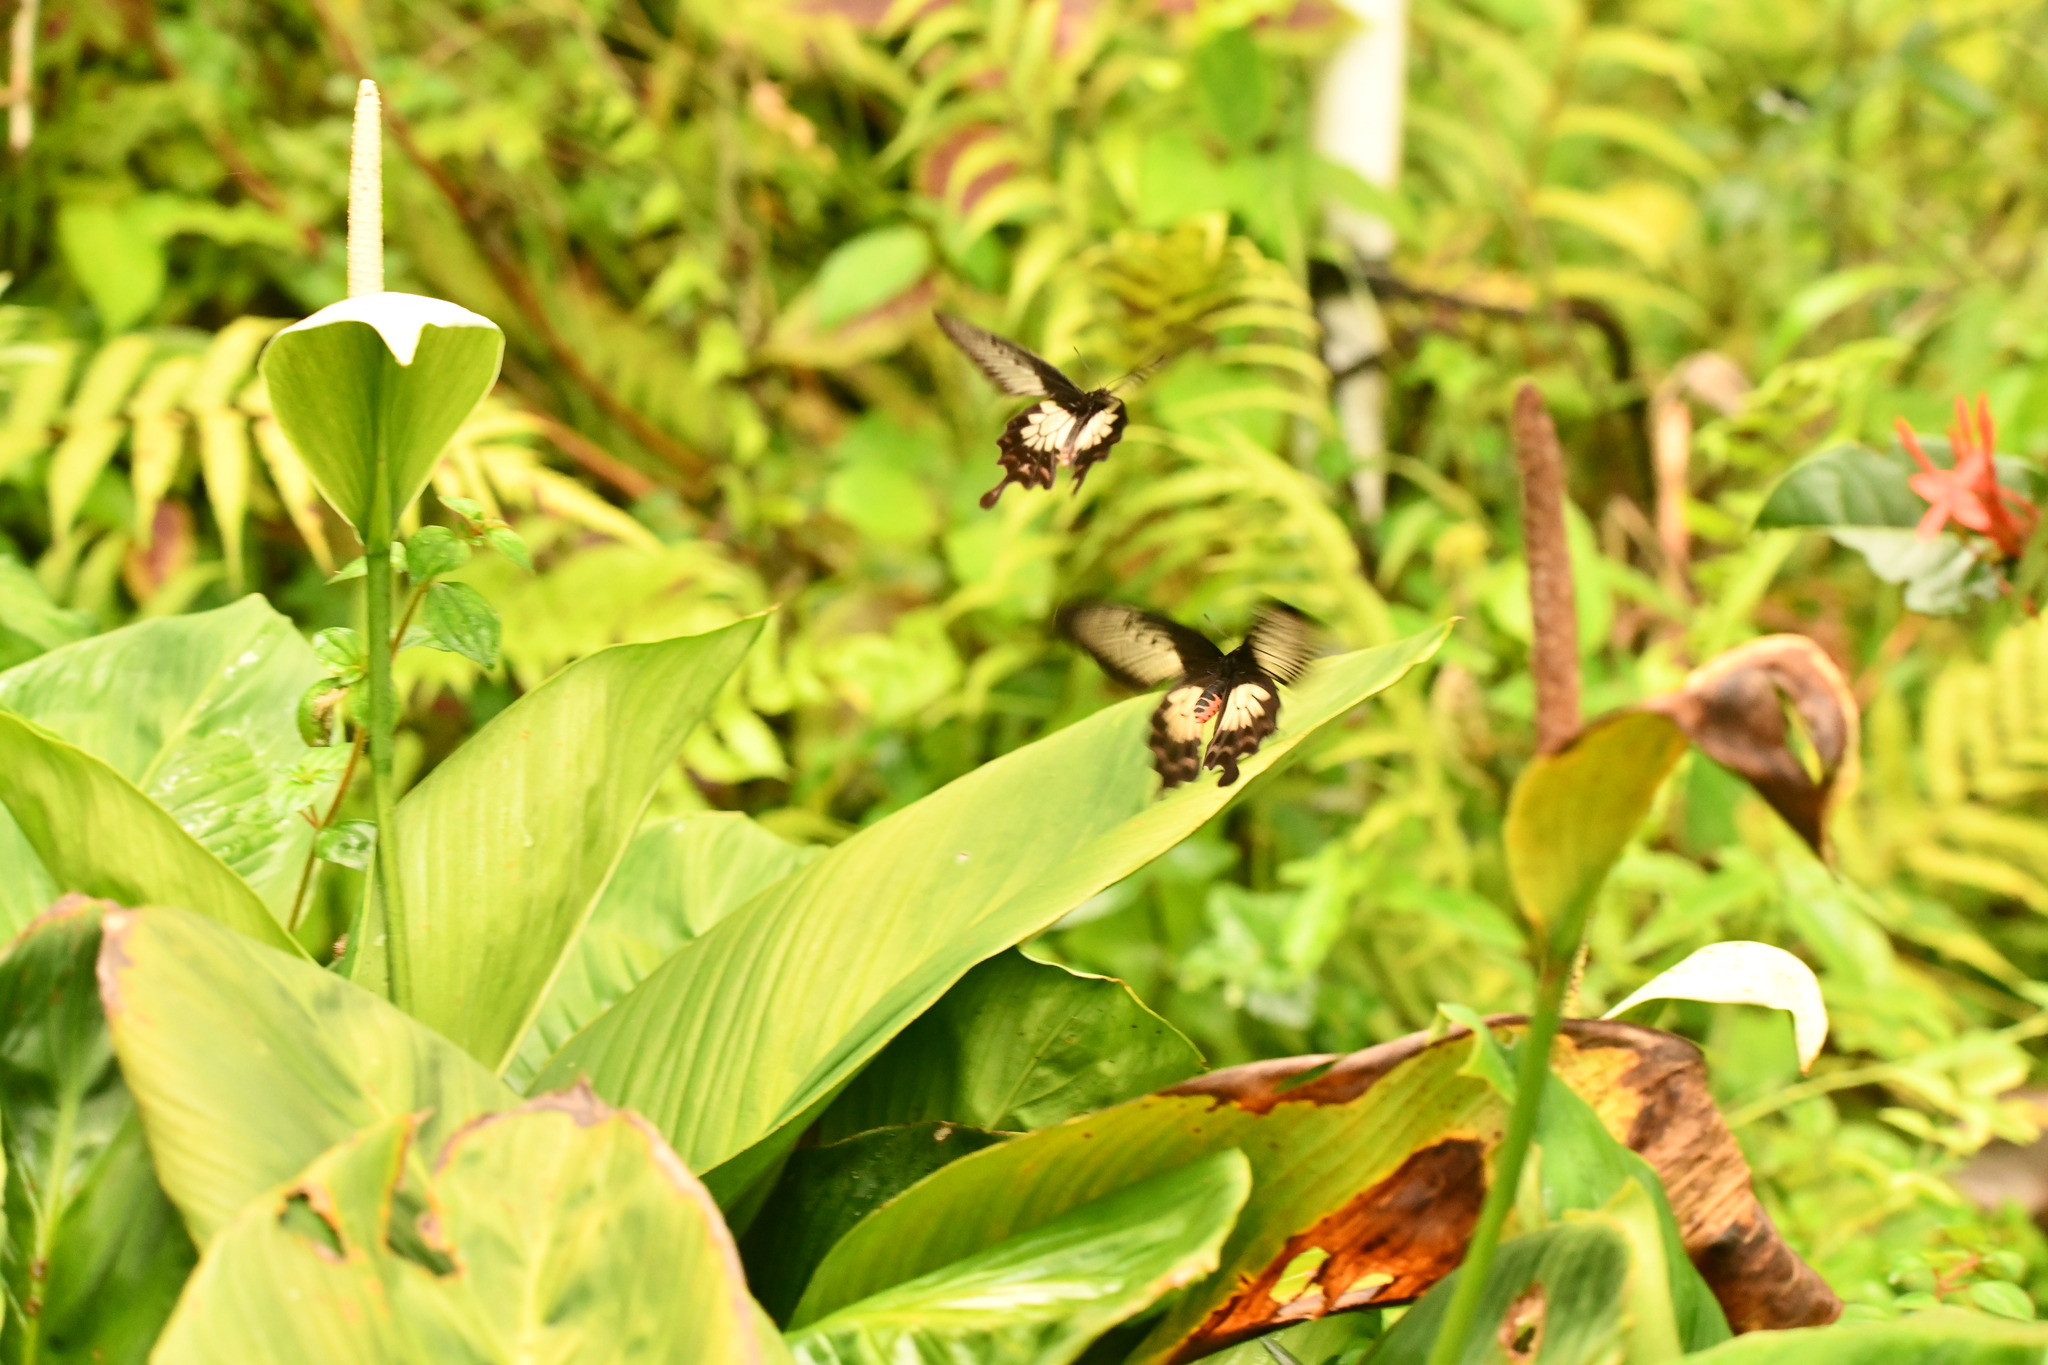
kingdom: Animalia
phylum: Arthropoda
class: Insecta
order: Lepidoptera
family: Papilionidae
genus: Pachliopta
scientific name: Pachliopta pandiyana
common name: Malabar rose
